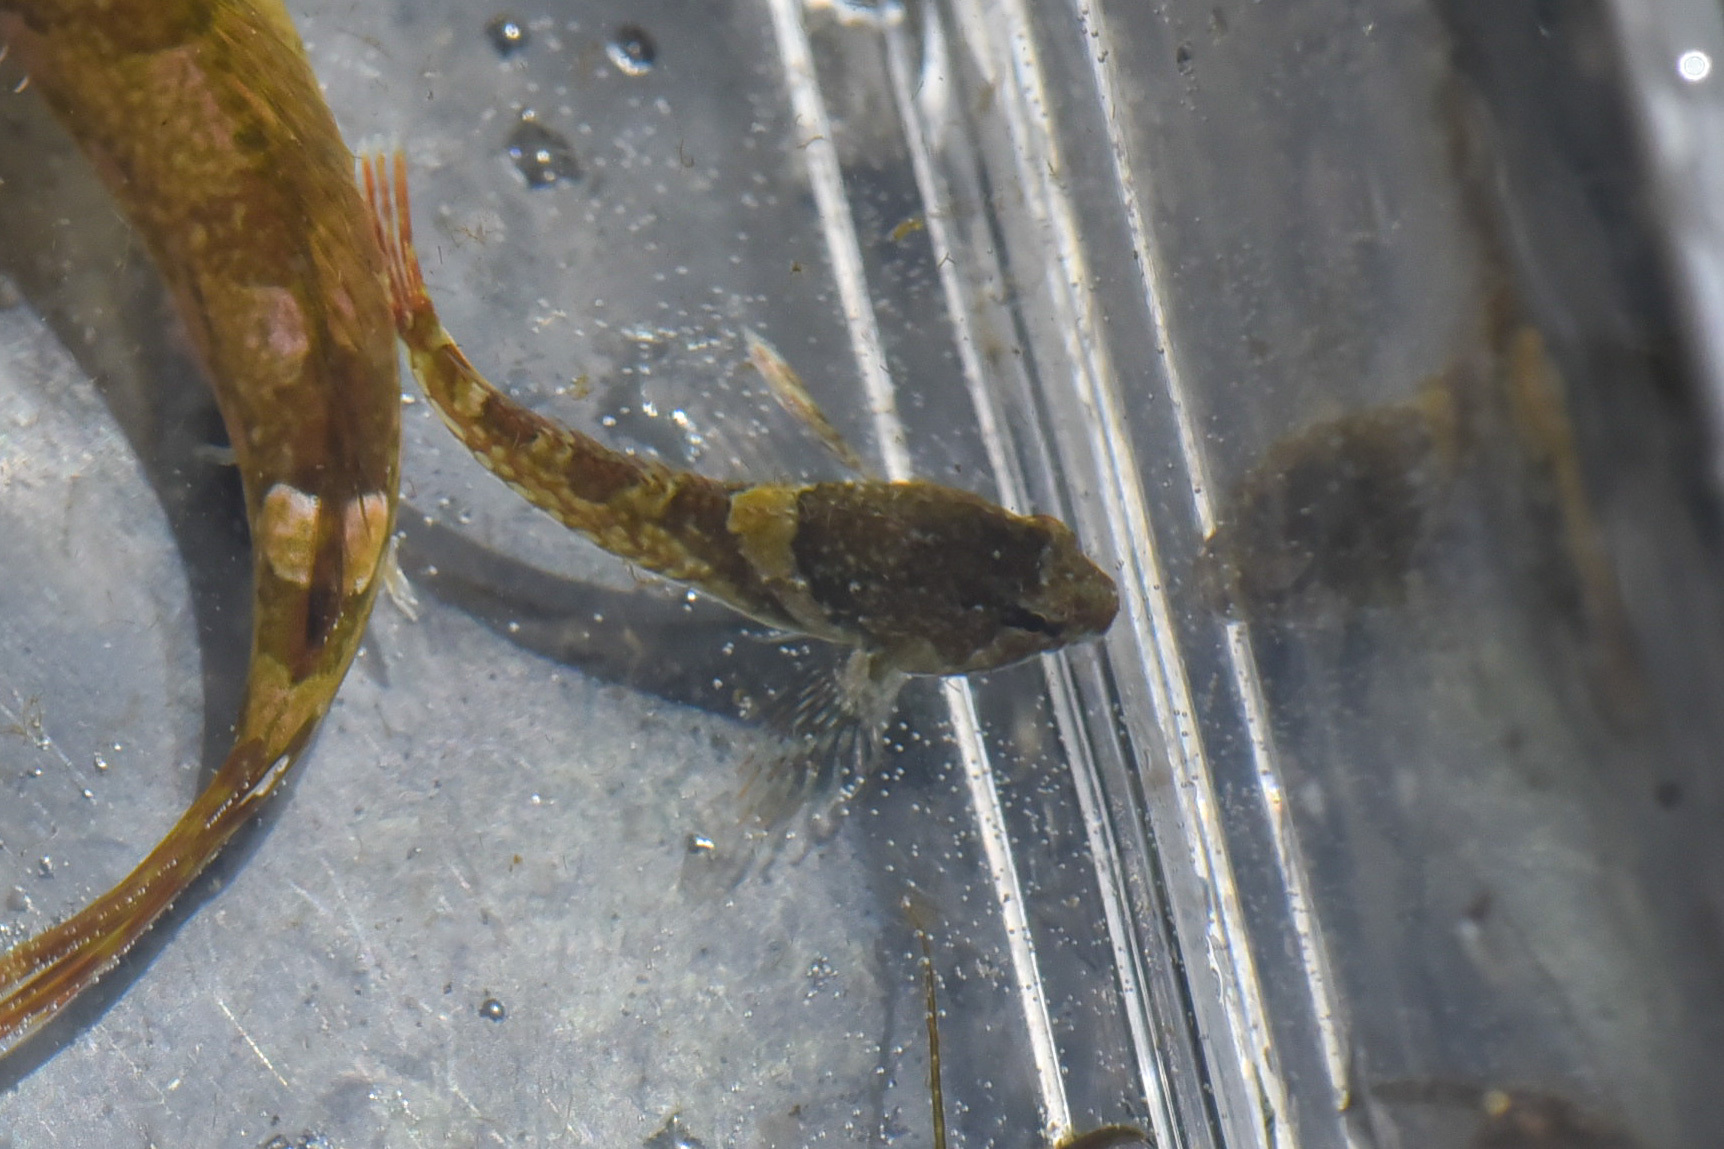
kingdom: Animalia
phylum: Chordata
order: Scorpaeniformes
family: Cottidae
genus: Oligocottus
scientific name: Oligocottus maculosus
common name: Tidepool sculpin
